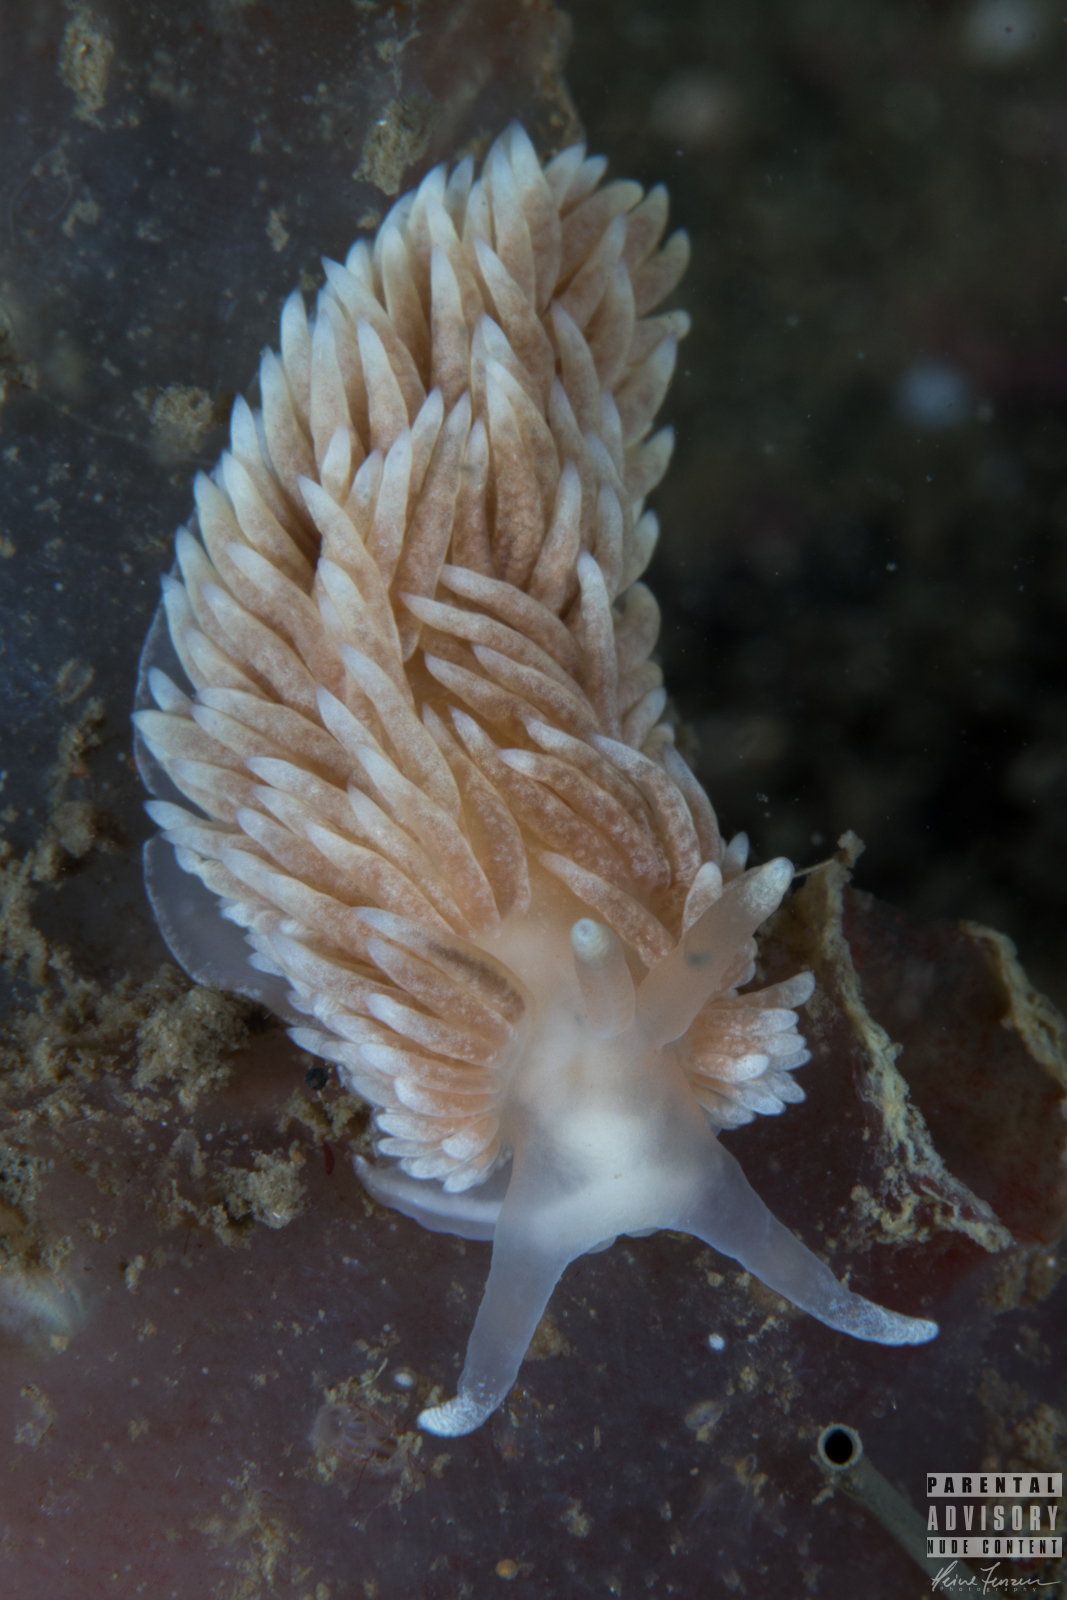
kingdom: Animalia
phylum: Mollusca
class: Gastropoda
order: Nudibranchia
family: Aeolidiidae
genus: Aeolidiella
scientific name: Aeolidiella glauca
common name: Orange-brown aeolid
